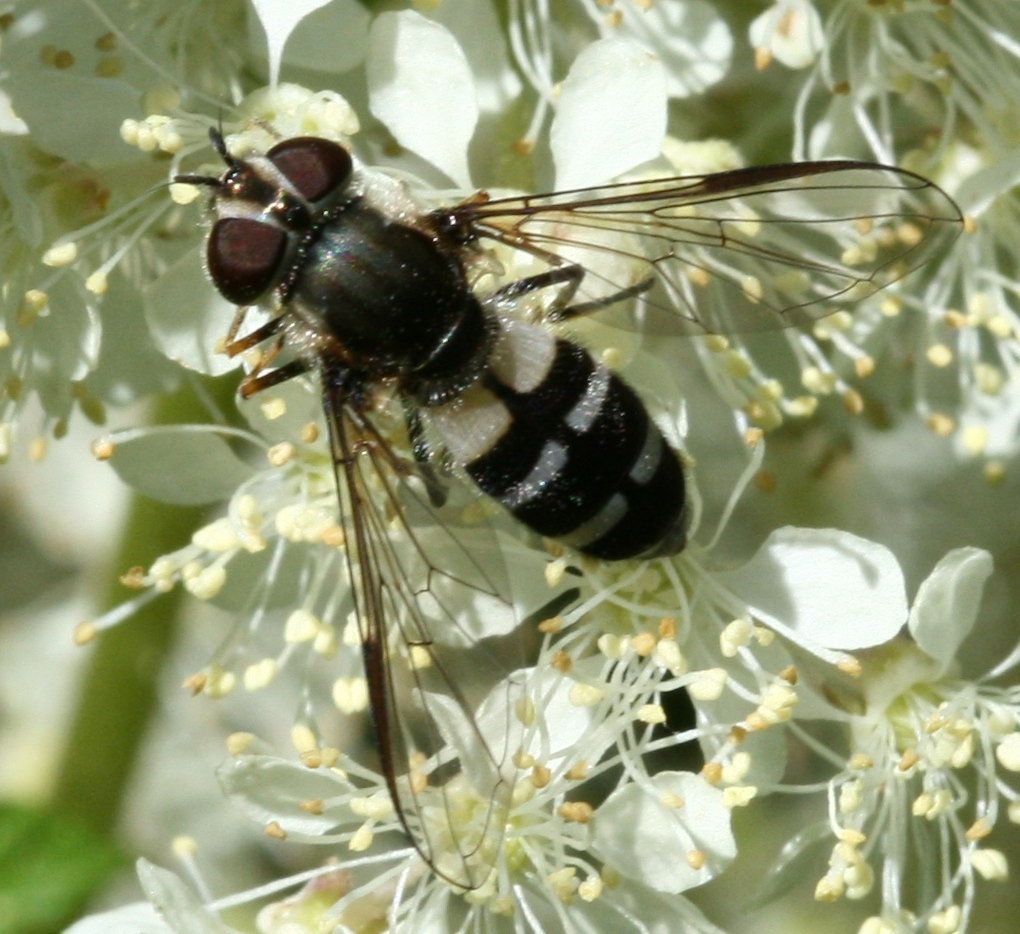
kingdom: Animalia
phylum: Arthropoda
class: Insecta
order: Diptera
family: Syrphidae
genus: Leucozona
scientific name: Leucozona laternaria
